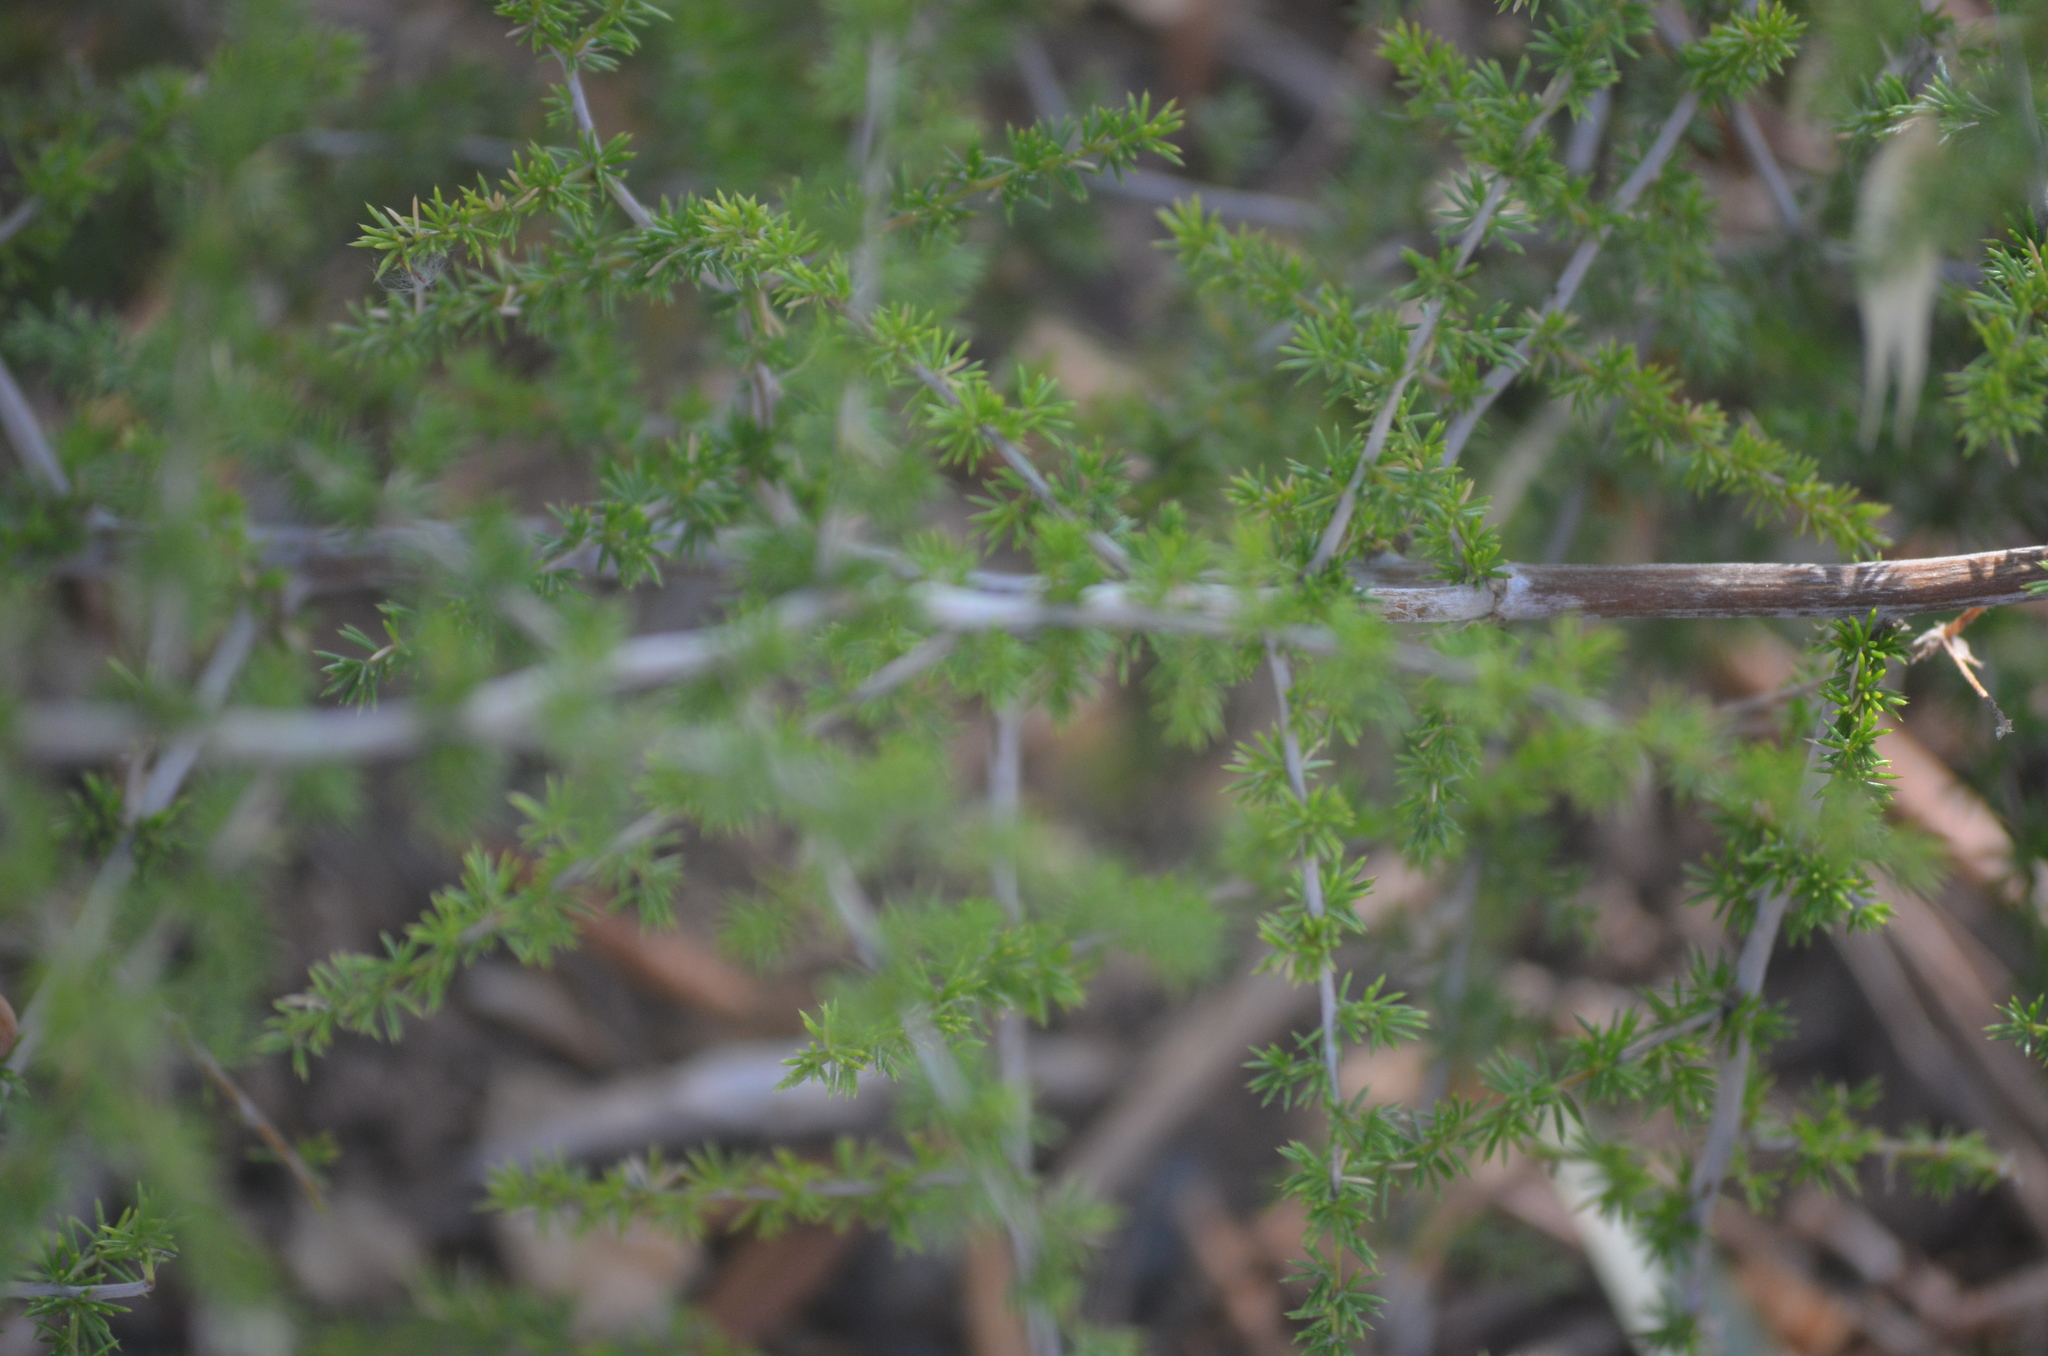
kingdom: Plantae
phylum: Tracheophyta
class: Liliopsida
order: Asparagales
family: Asparagaceae
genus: Asparagus
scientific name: Asparagus acutifolius
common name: Wild asparagus
